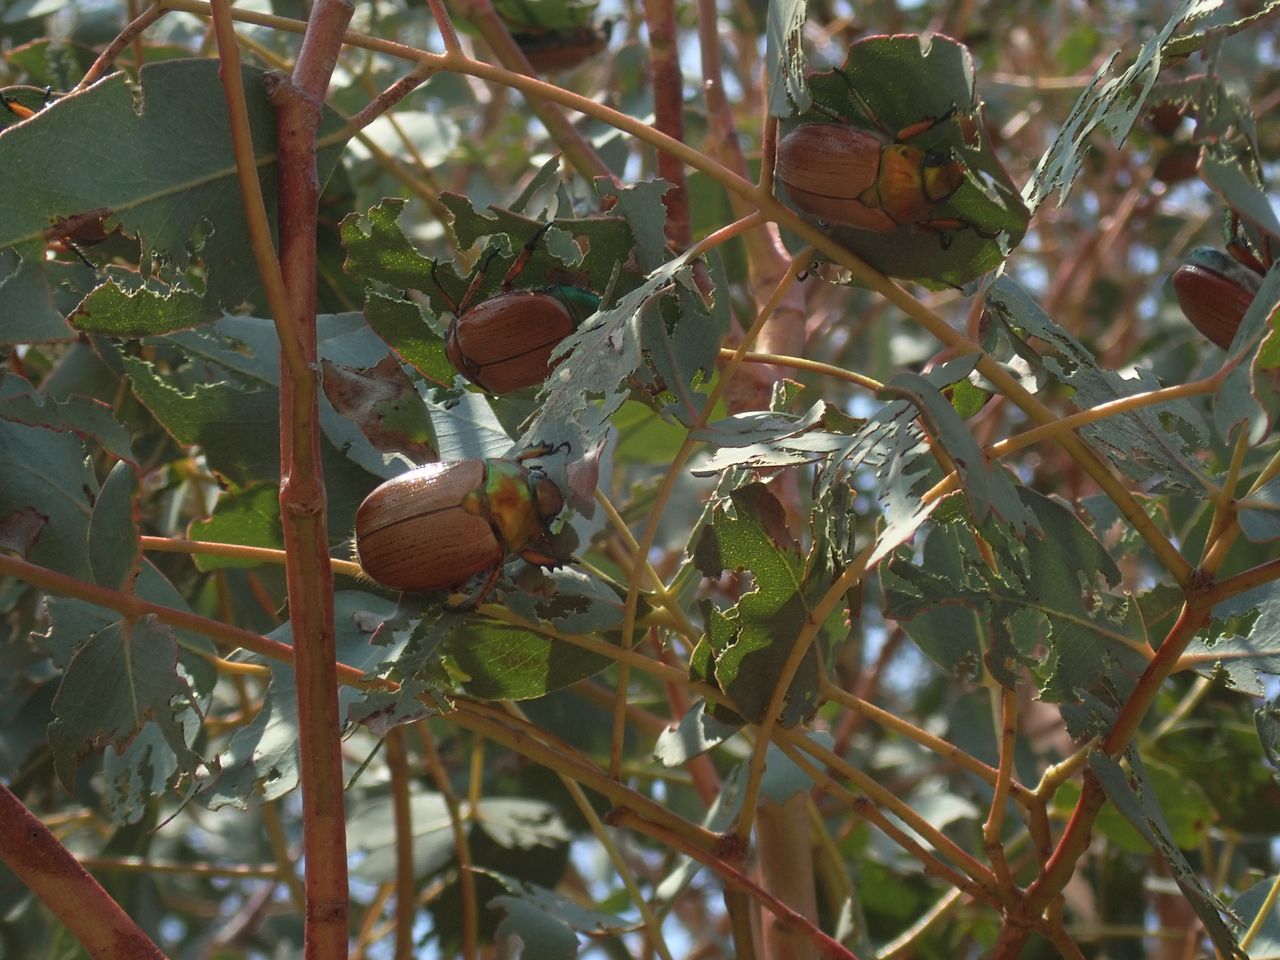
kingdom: Animalia
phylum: Arthropoda
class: Insecta
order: Coleoptera
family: Scarabaeidae
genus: Anoplognathus
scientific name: Anoplognathus brunnipennis
